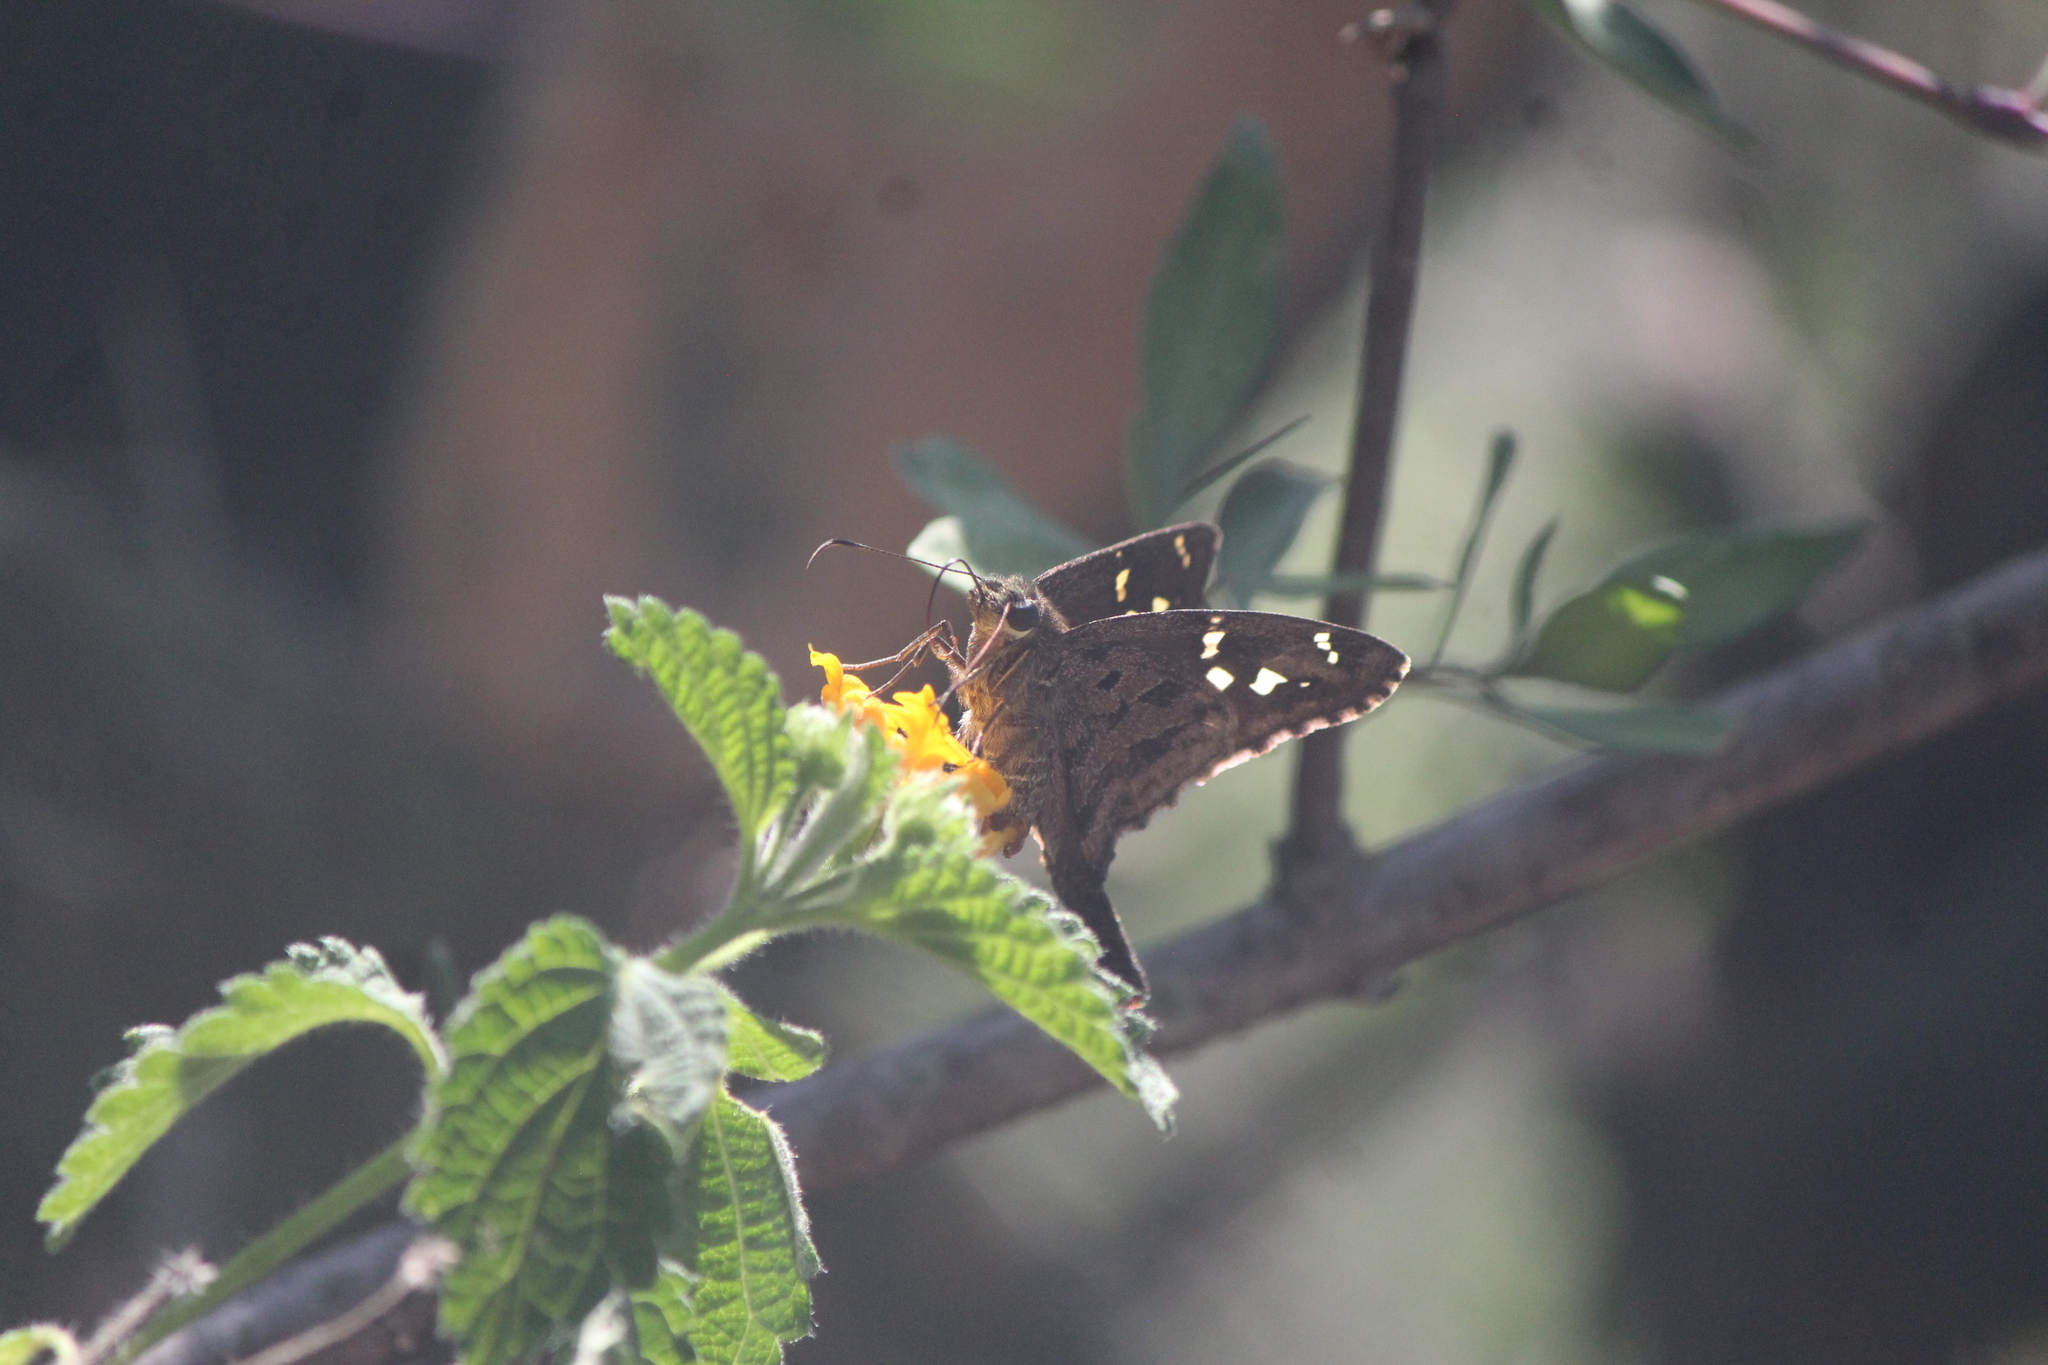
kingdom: Animalia
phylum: Arthropoda
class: Insecta
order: Lepidoptera
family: Hesperiidae
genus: Thorybes
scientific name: Thorybes
